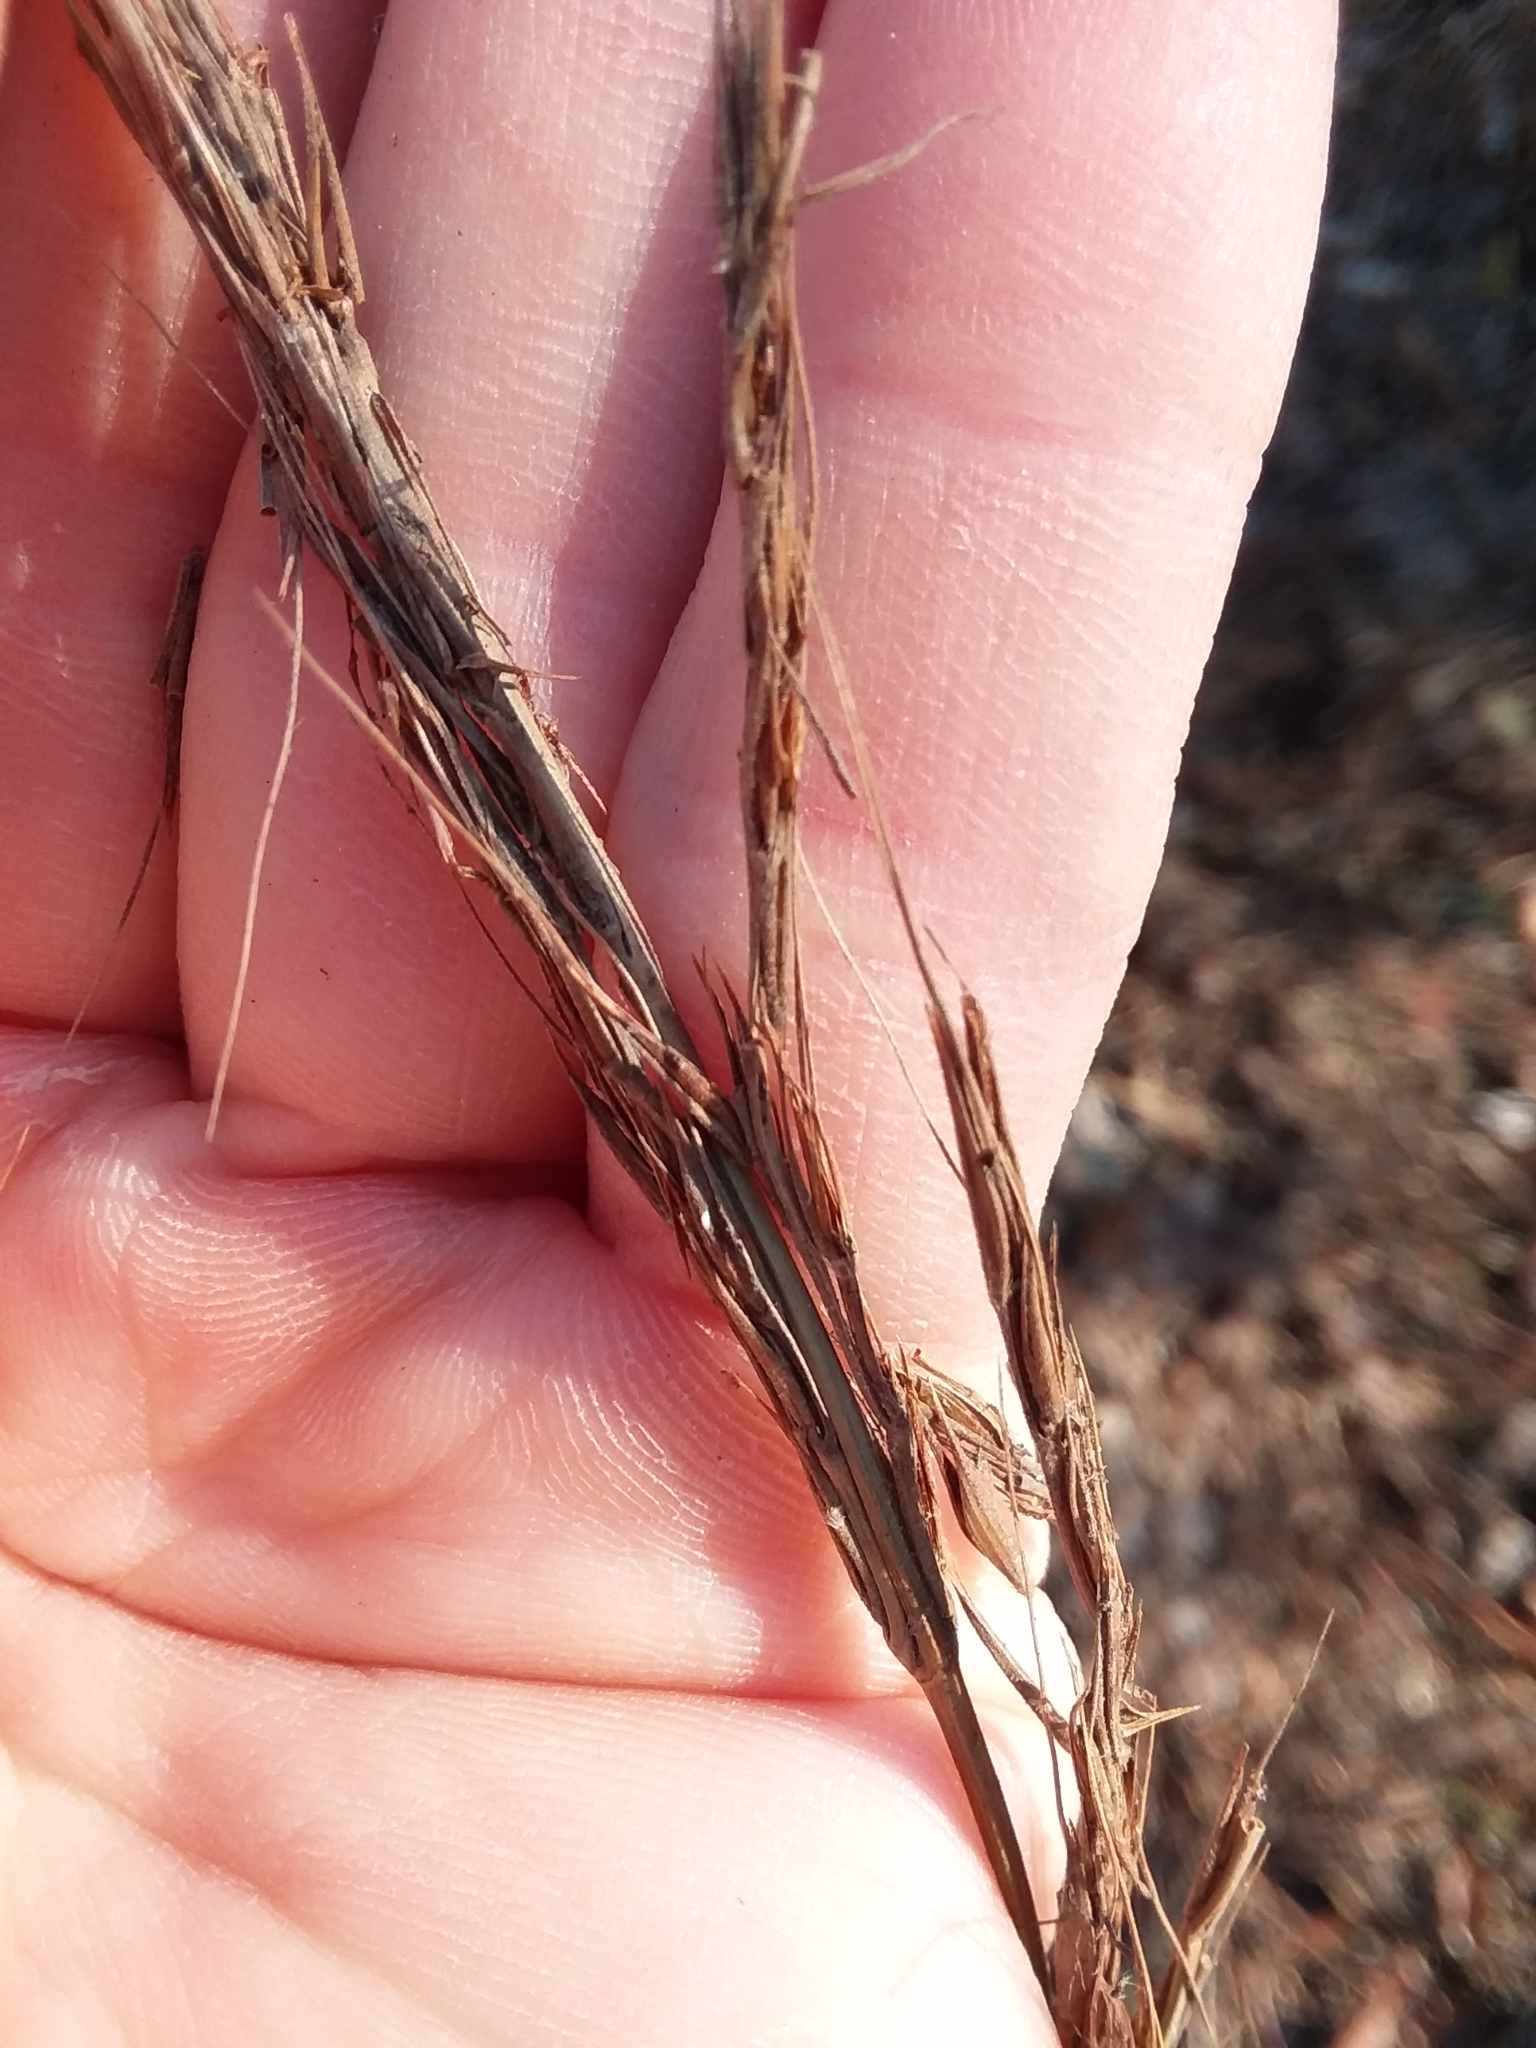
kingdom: Plantae
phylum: Tracheophyta
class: Liliopsida
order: Poales
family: Poaceae
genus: Erianthus
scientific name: Erianthus strictus
